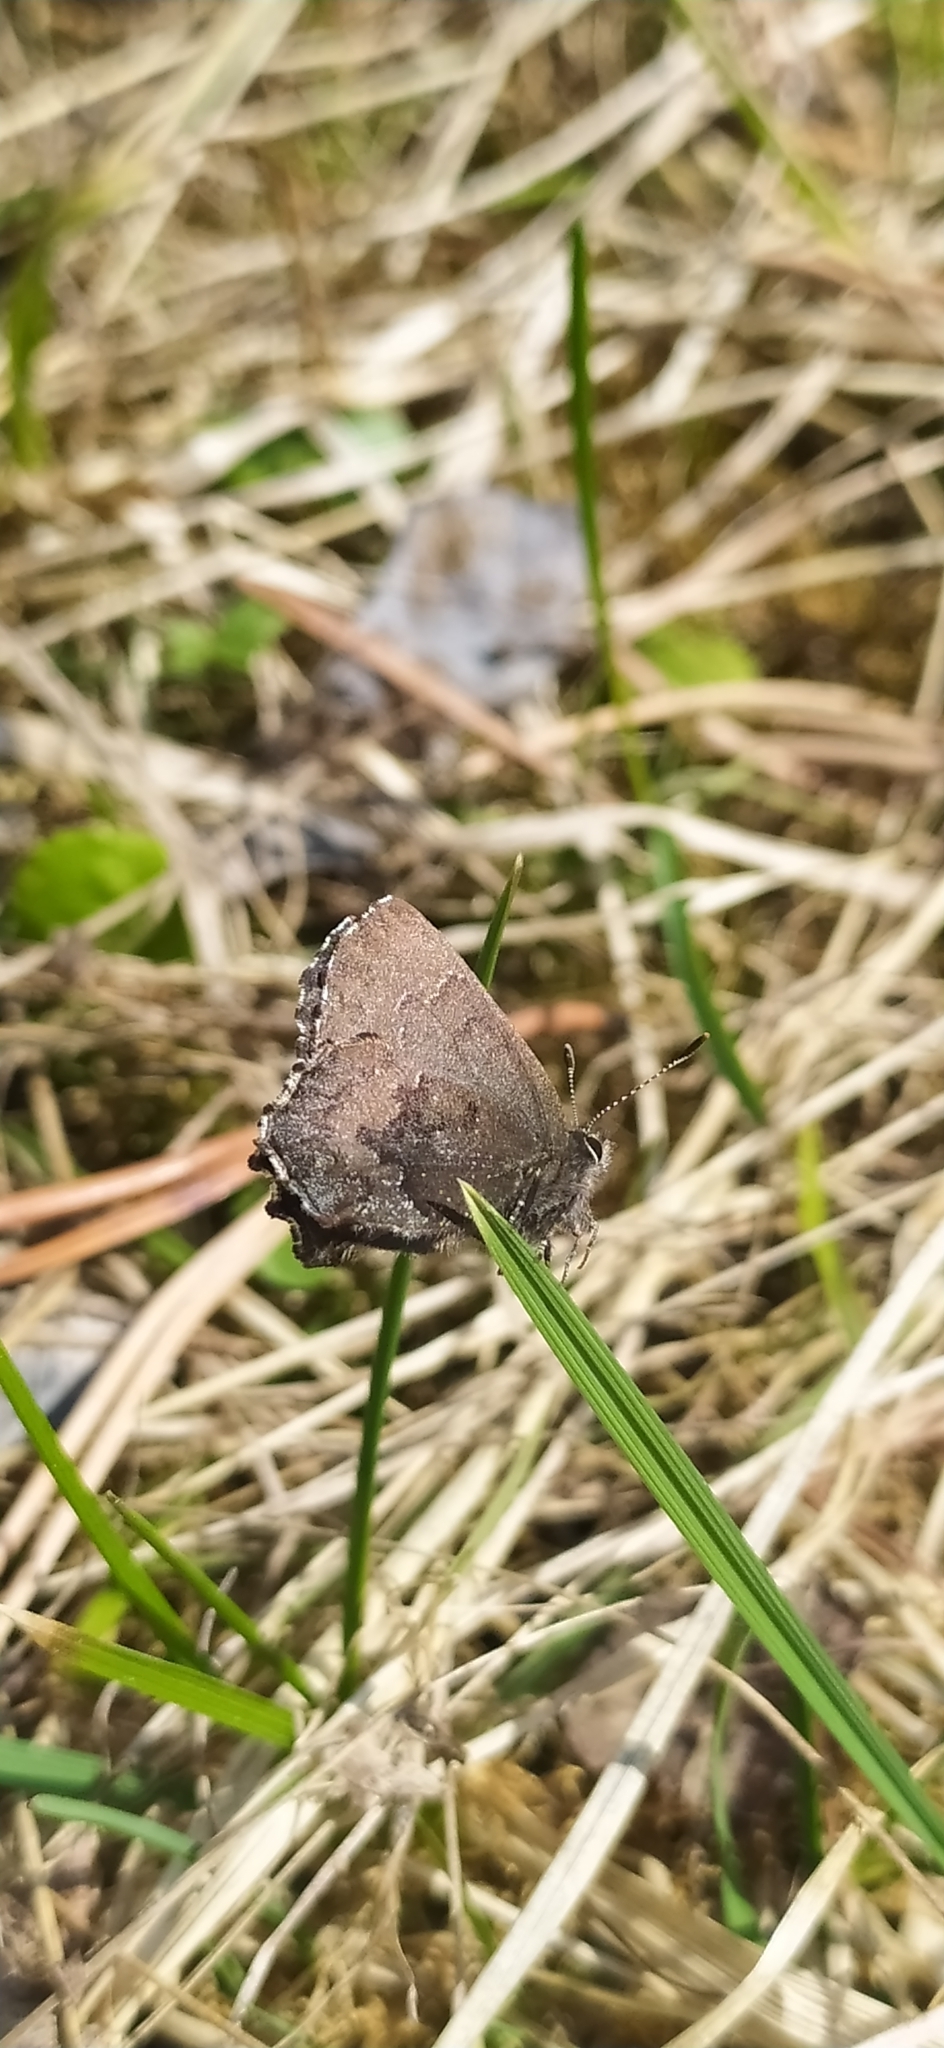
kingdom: Animalia
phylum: Arthropoda
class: Insecta
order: Lepidoptera
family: Lycaenidae
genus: Ginzia
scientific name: Ginzia Ahlbergia frivaldszkyi
